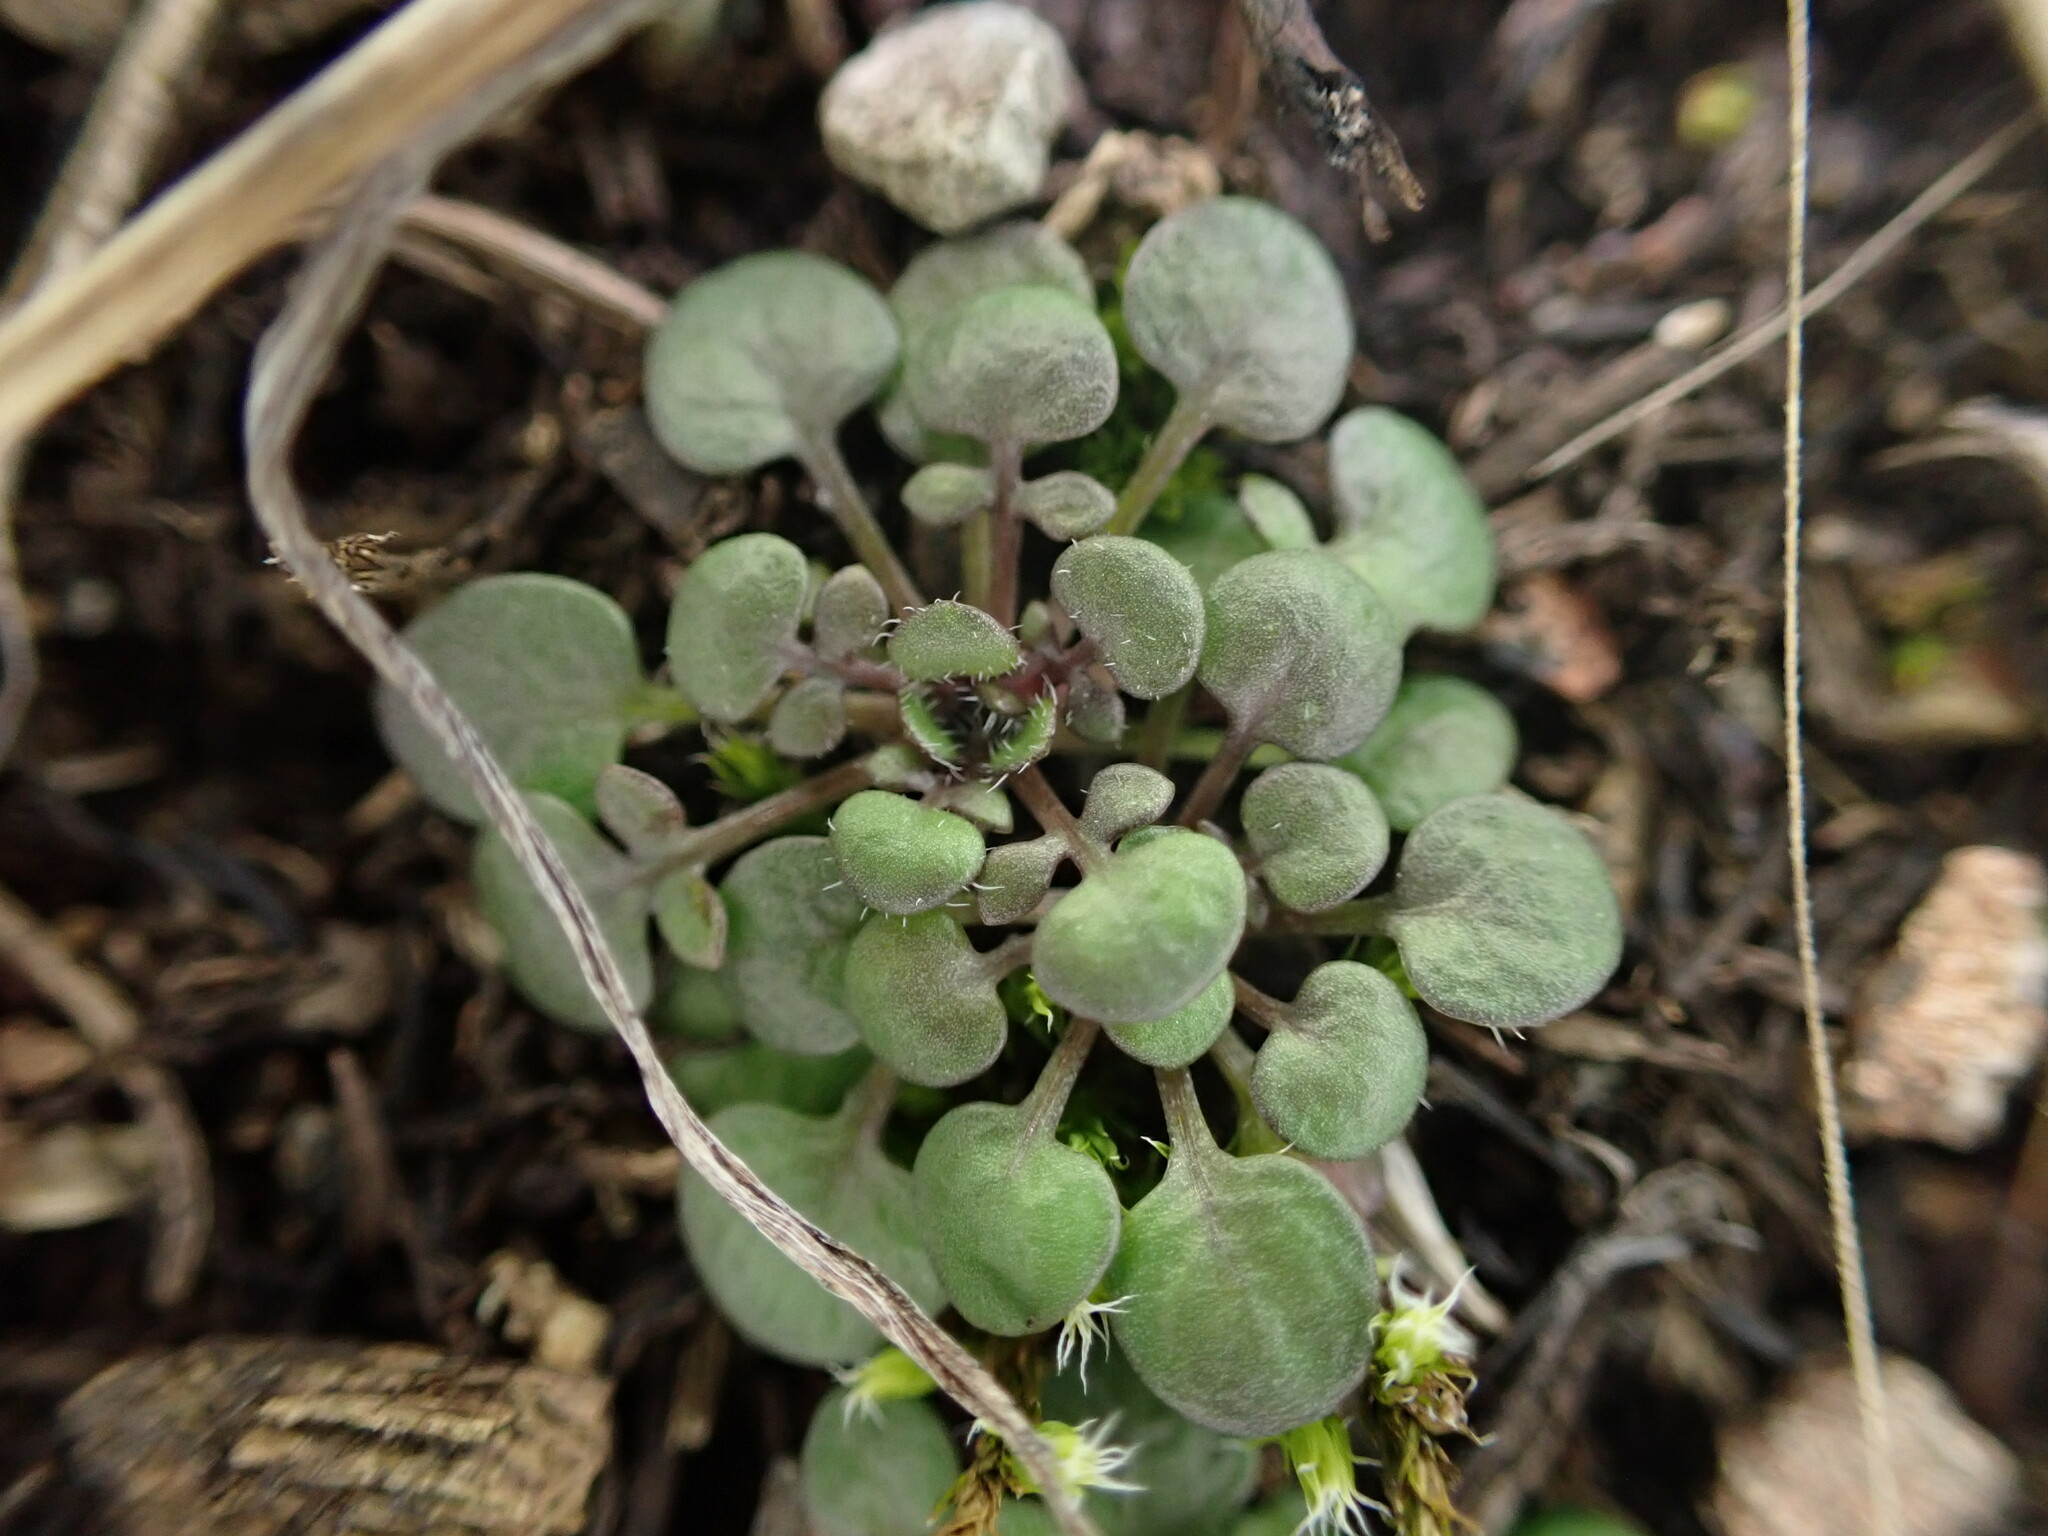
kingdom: Plantae
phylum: Tracheophyta
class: Magnoliopsida
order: Brassicales
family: Brassicaceae
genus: Teesdalia
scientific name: Teesdalia nudicaulis
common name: Shepherd's cress
